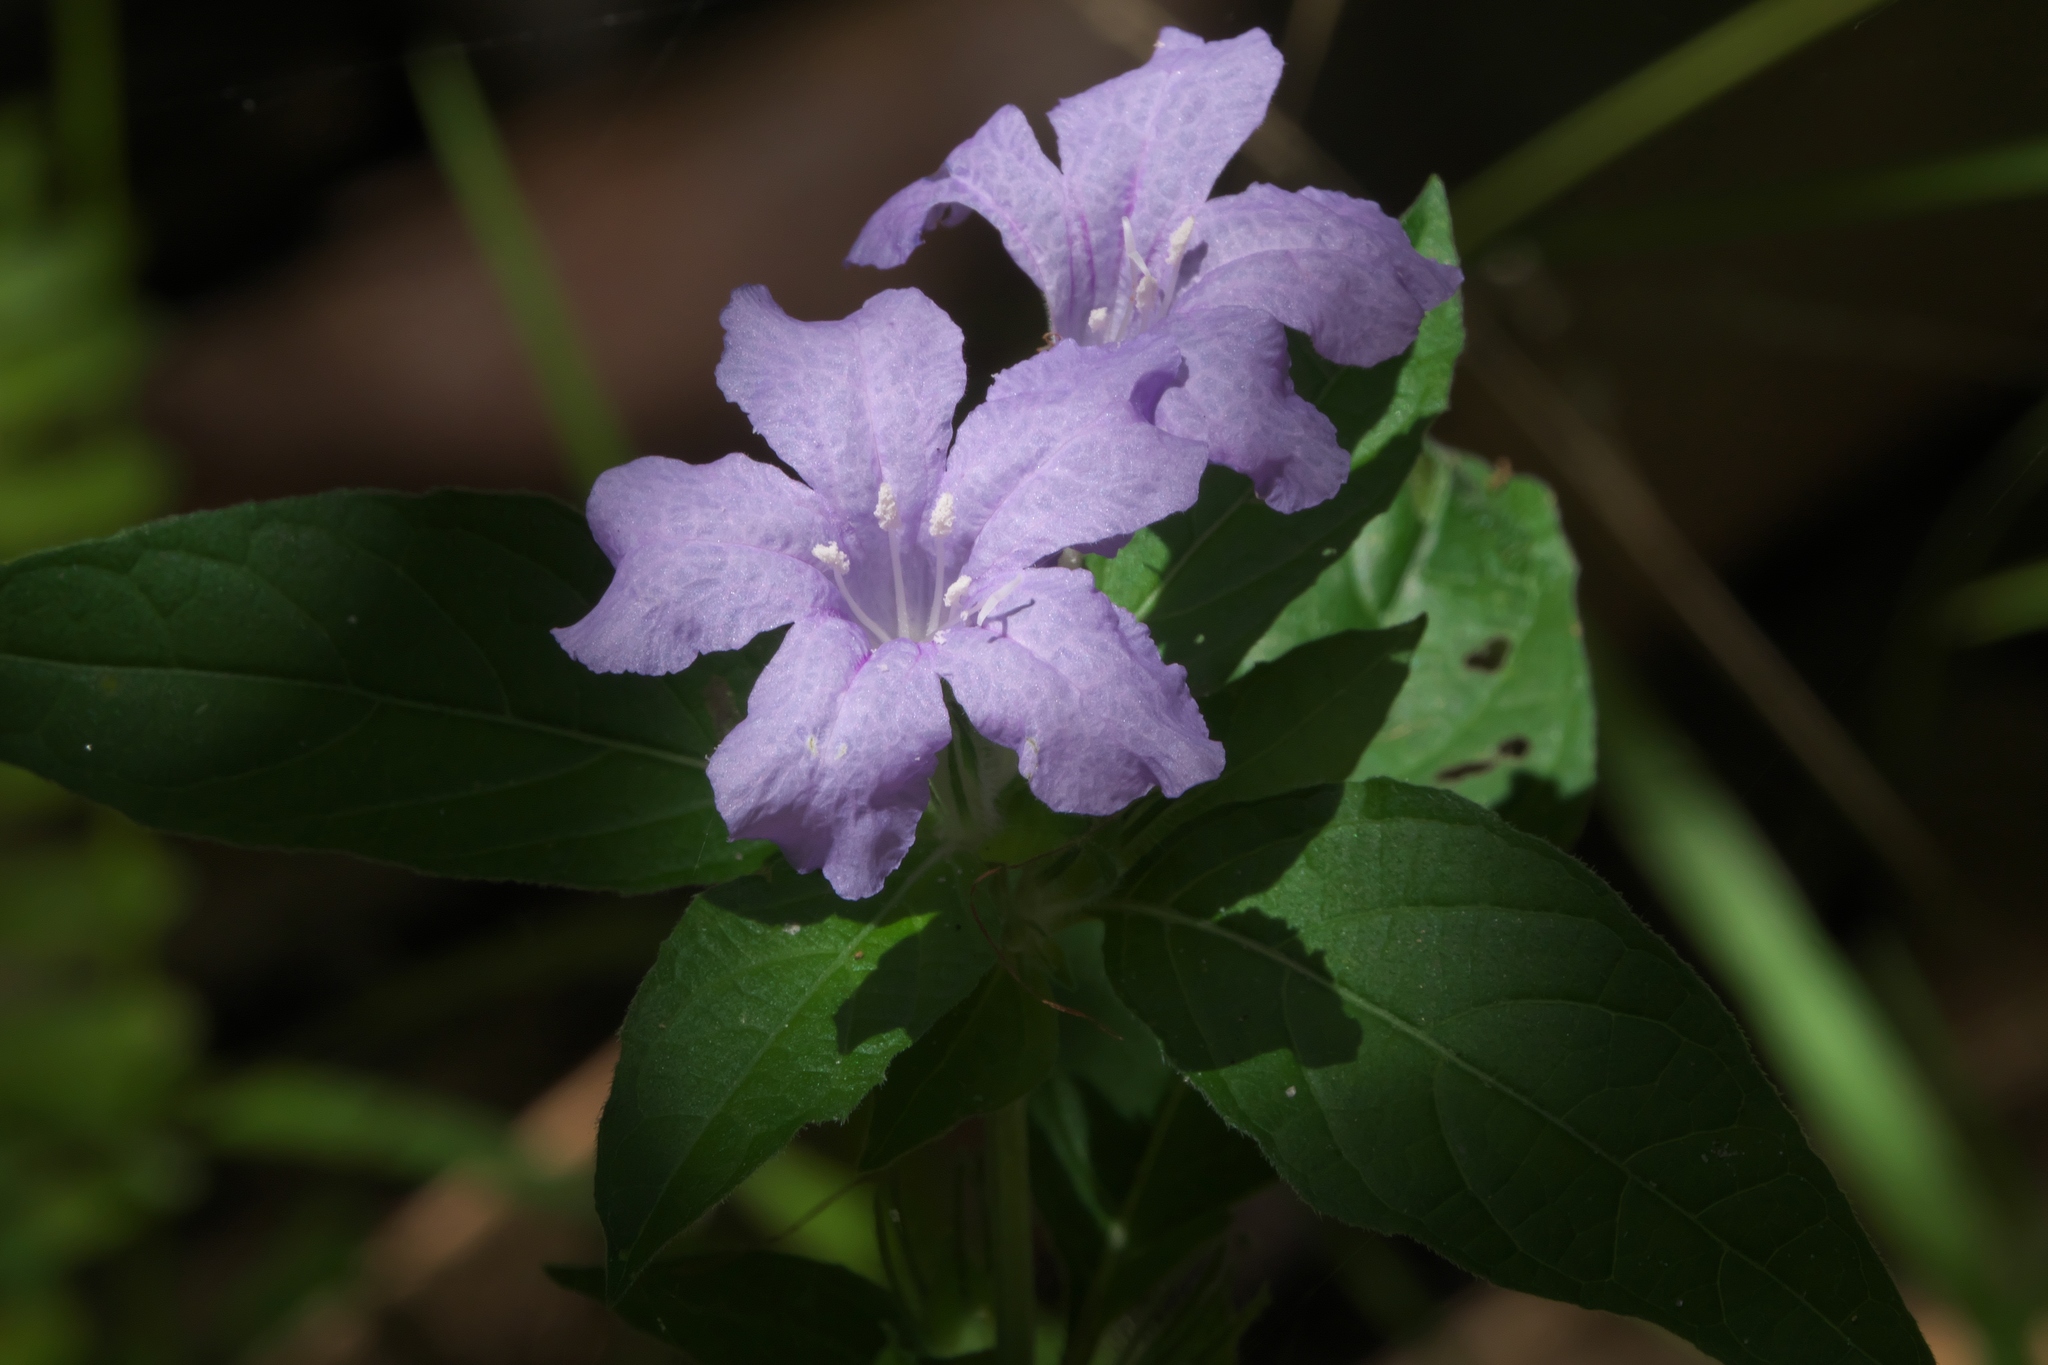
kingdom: Plantae
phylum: Tracheophyta
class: Magnoliopsida
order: Lamiales
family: Acanthaceae
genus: Ruellia
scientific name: Ruellia caroliniensis
